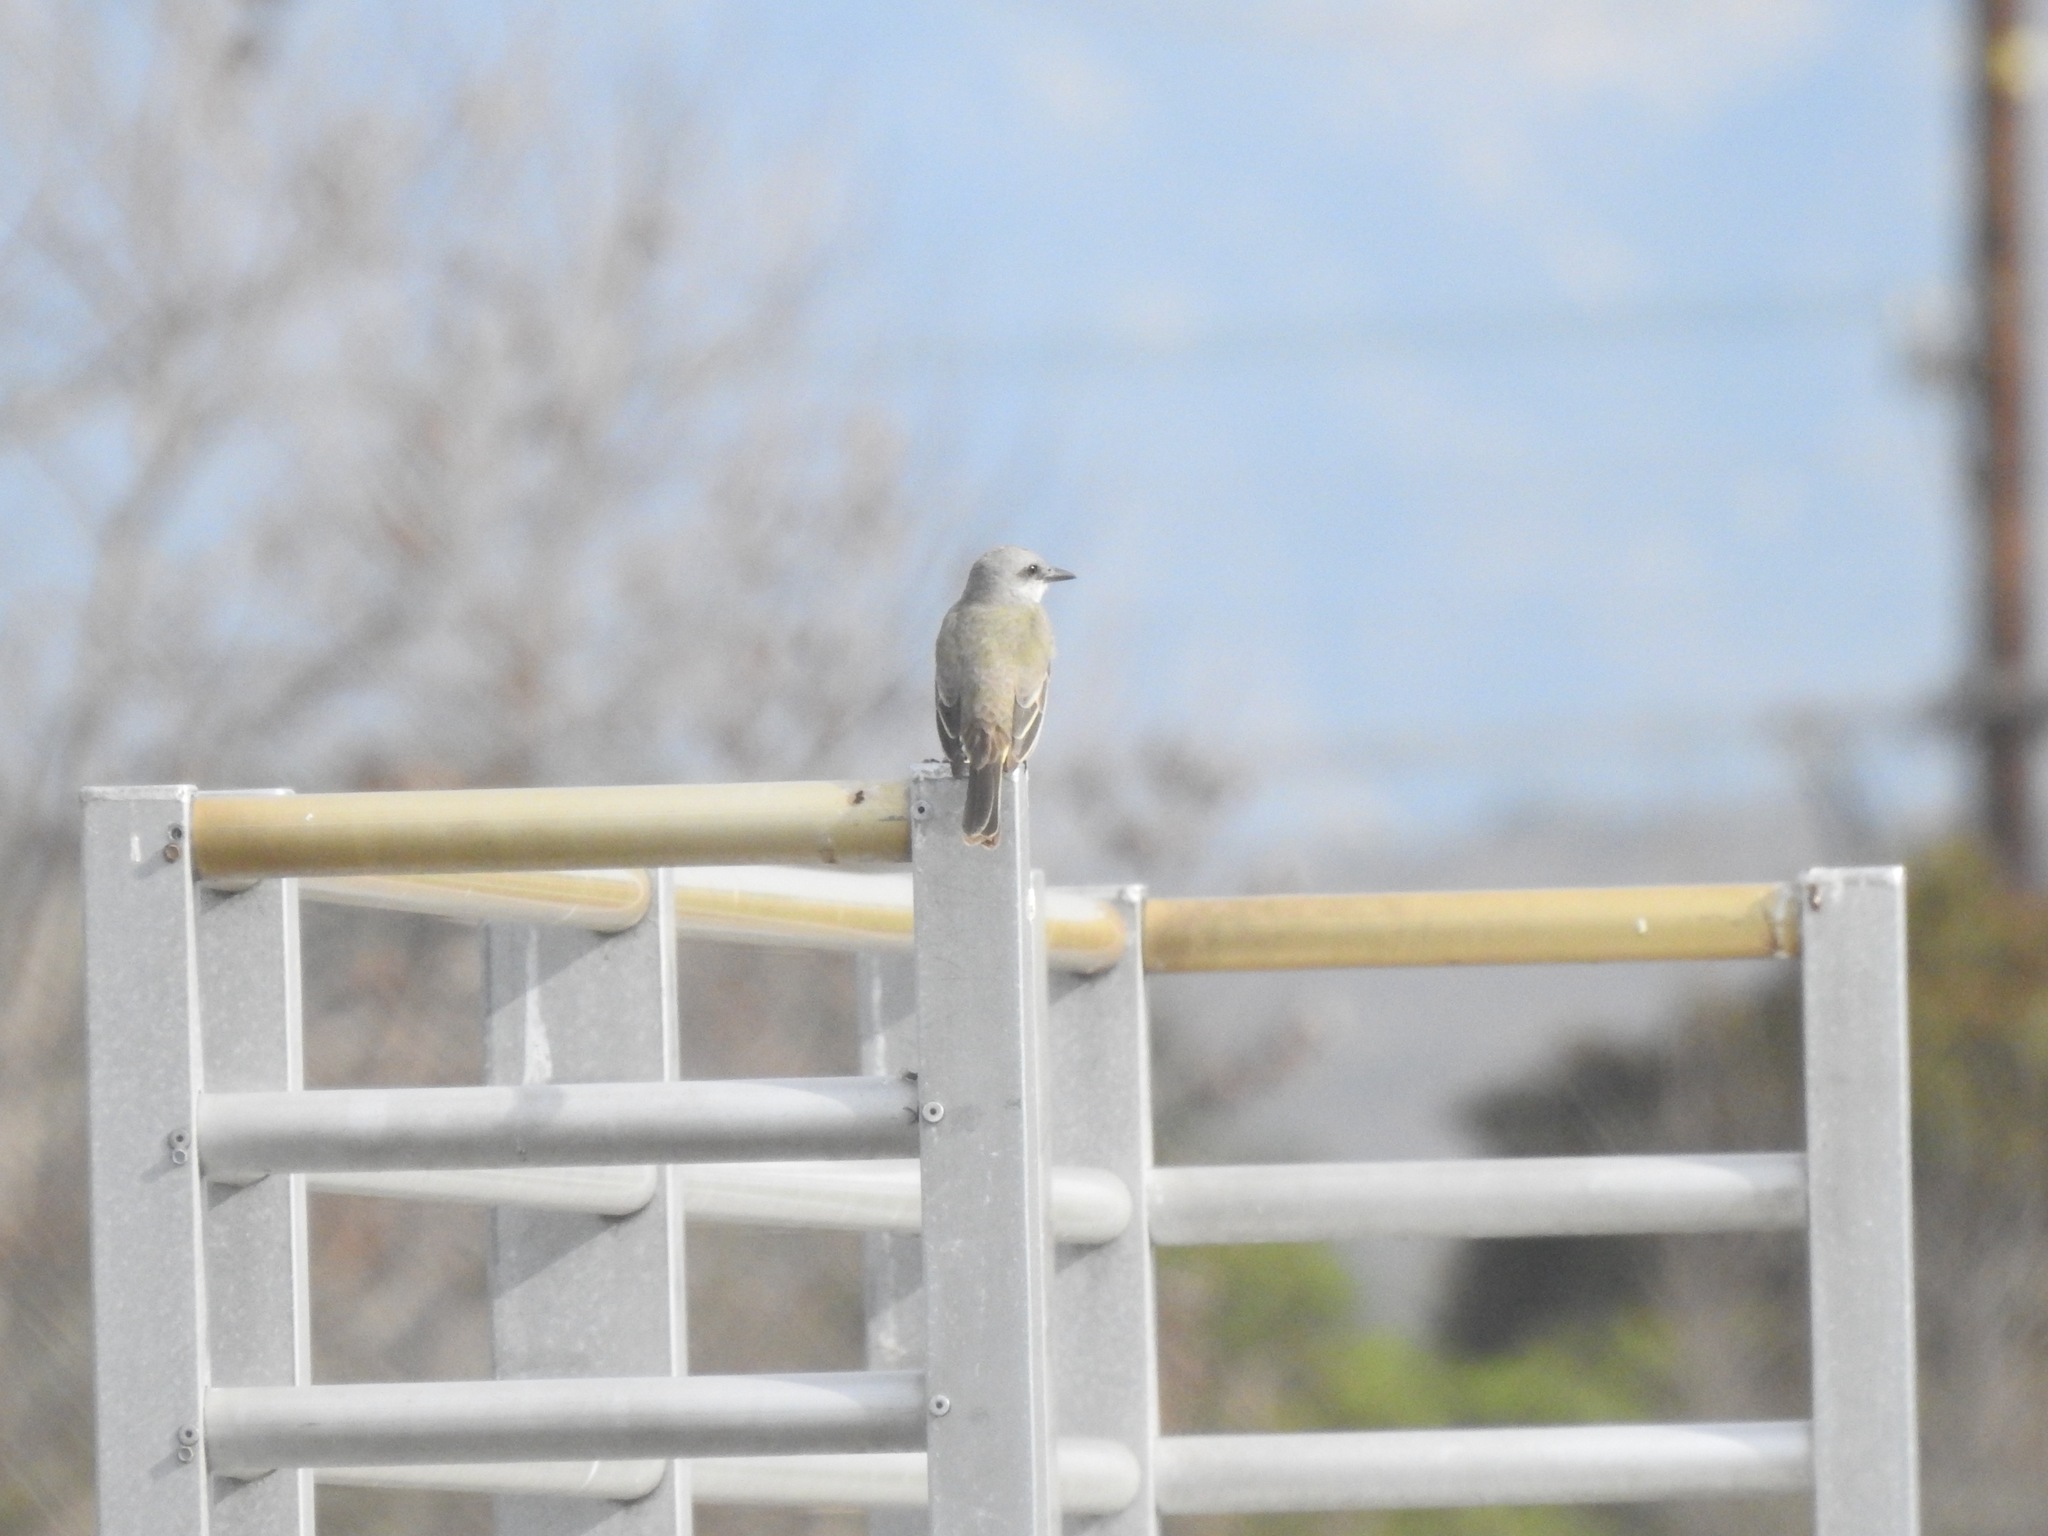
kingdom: Animalia
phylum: Chordata
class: Aves
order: Passeriformes
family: Tyrannidae
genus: Tyrannus
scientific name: Tyrannus melancholicus
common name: Tropical kingbird
